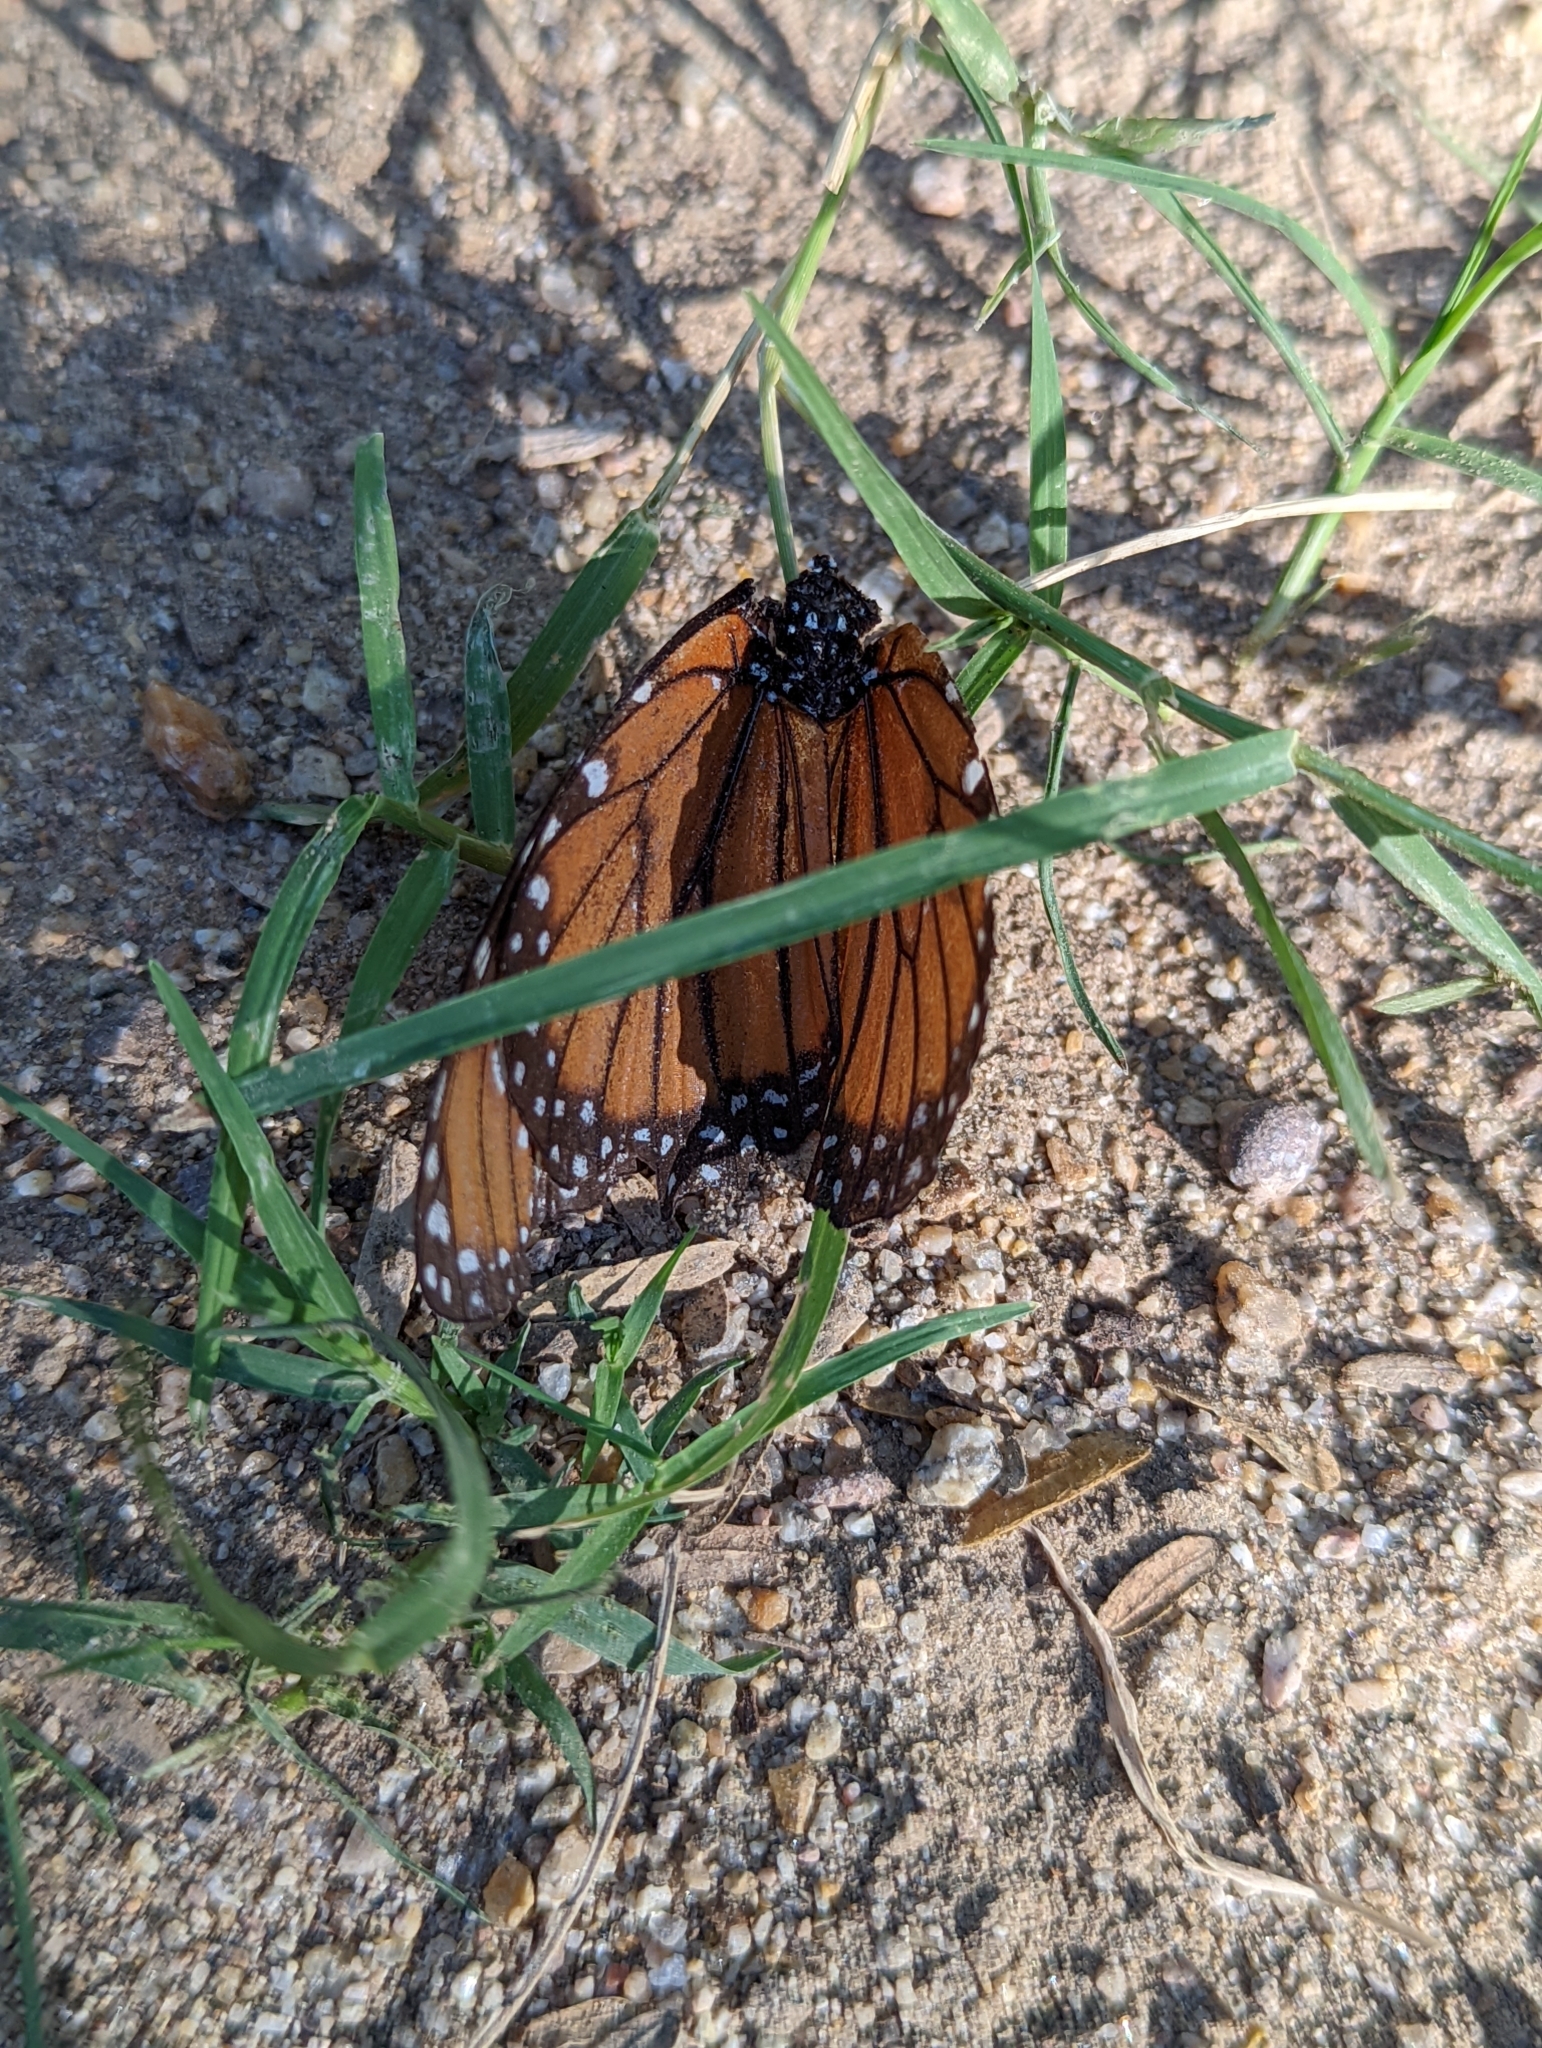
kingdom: Animalia
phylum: Arthropoda
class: Insecta
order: Lepidoptera
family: Nymphalidae
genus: Danaus
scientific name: Danaus gilippus
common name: Queen
